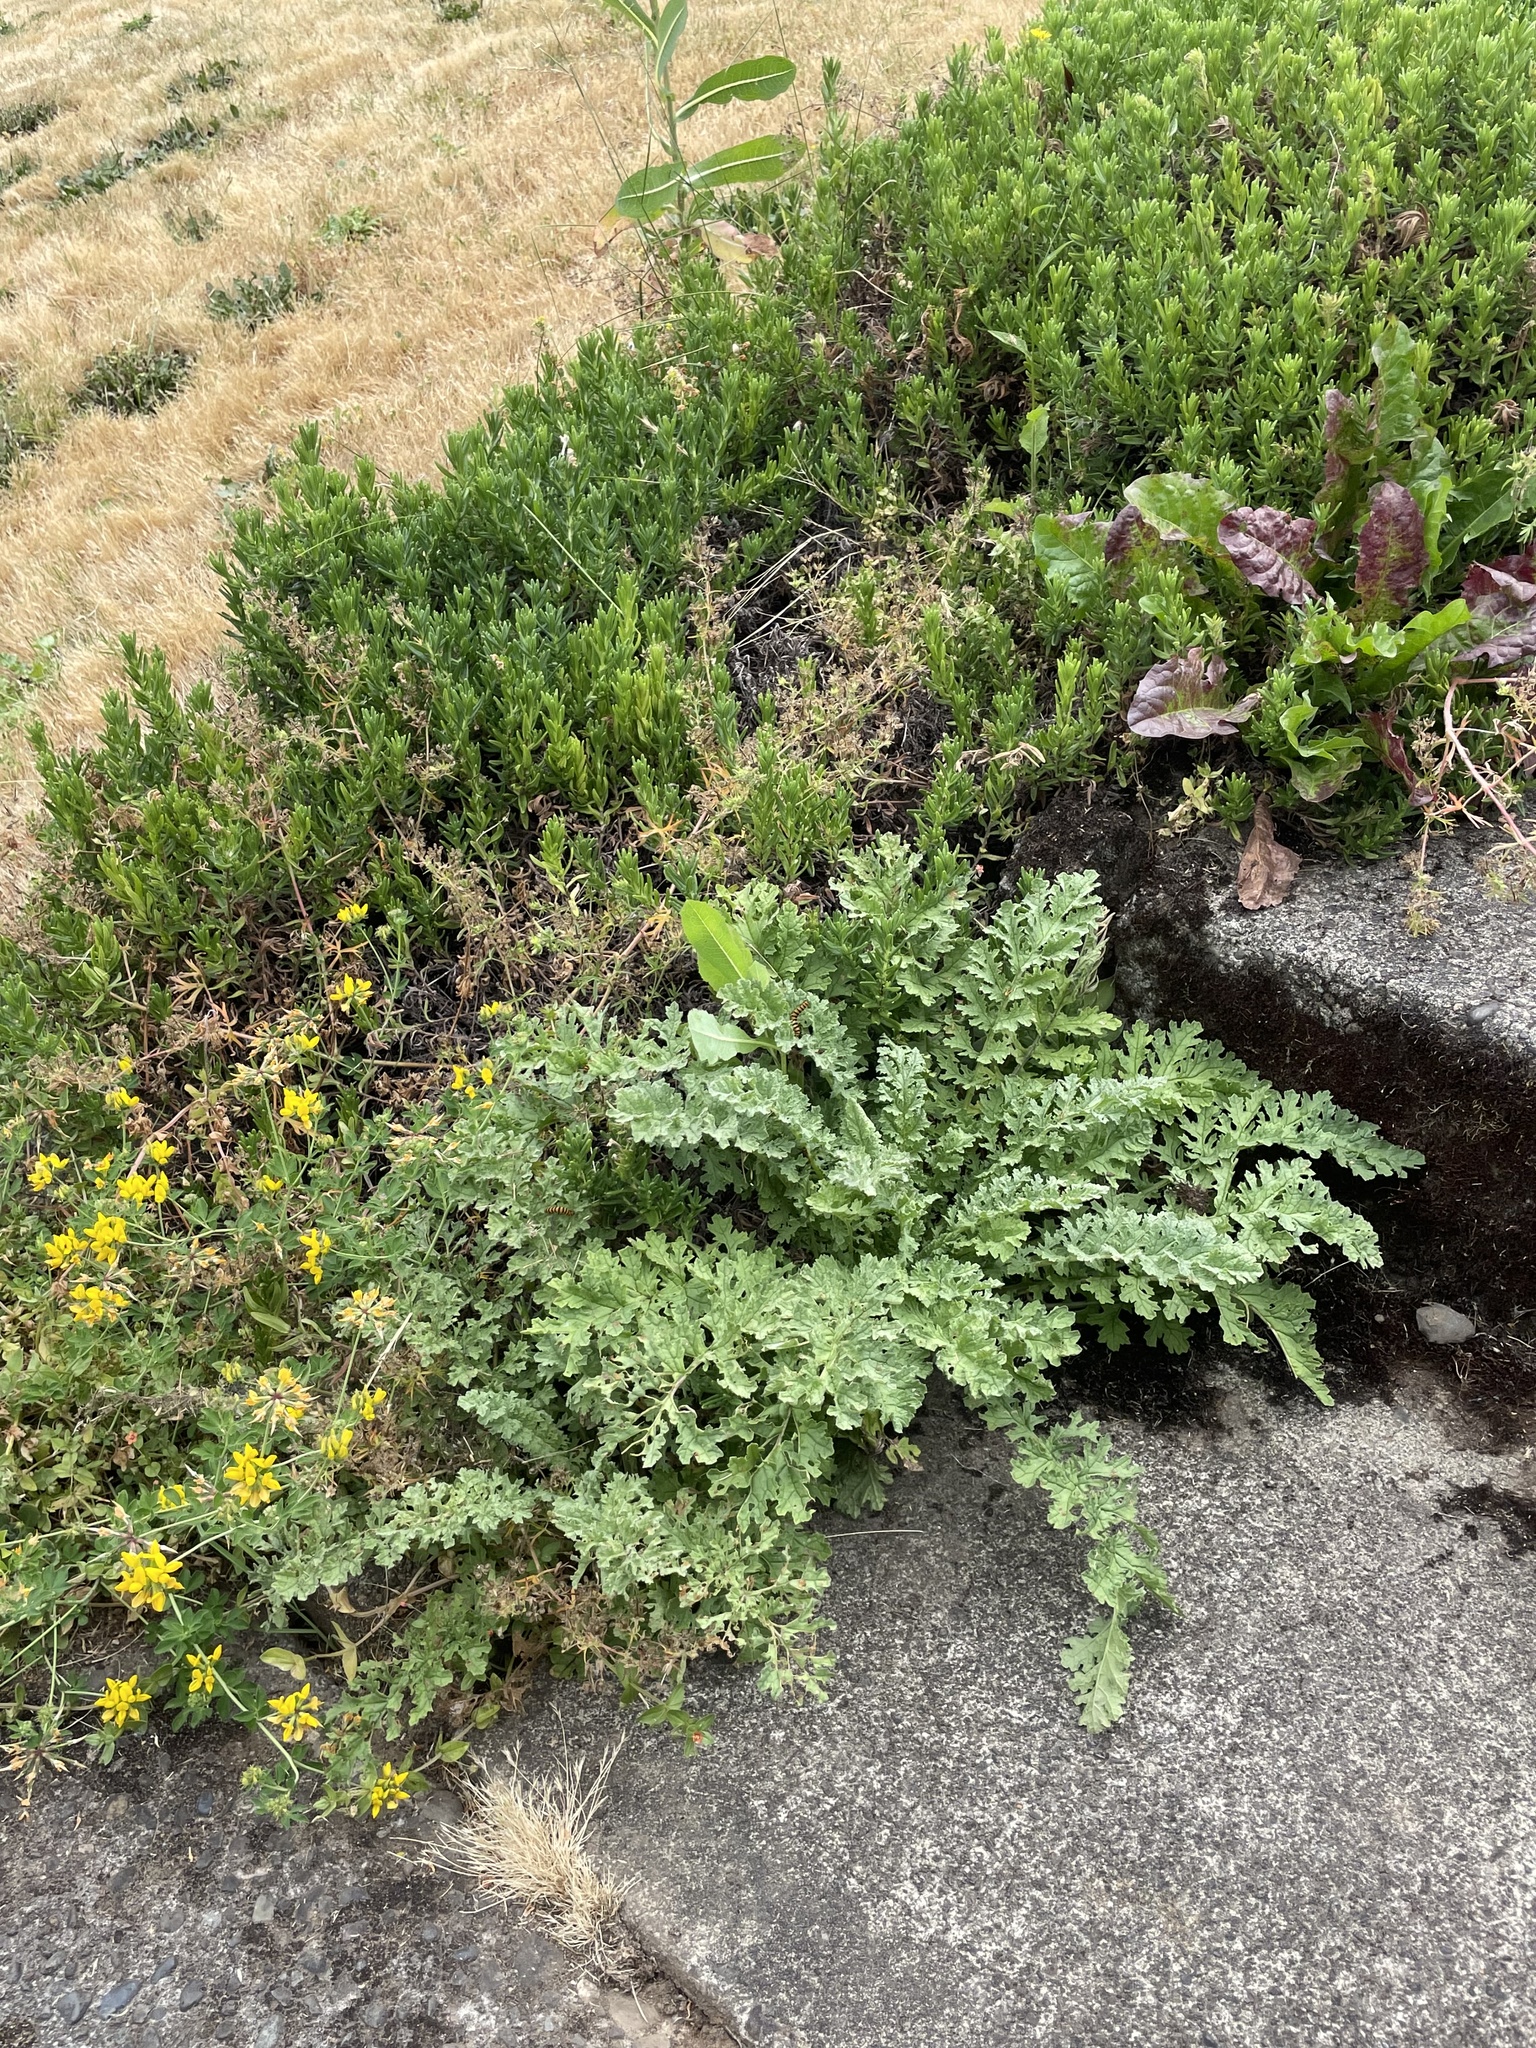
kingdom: Animalia
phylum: Arthropoda
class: Insecta
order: Lepidoptera
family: Erebidae
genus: Tyria
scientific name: Tyria jacobaeae
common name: Cinnabar
